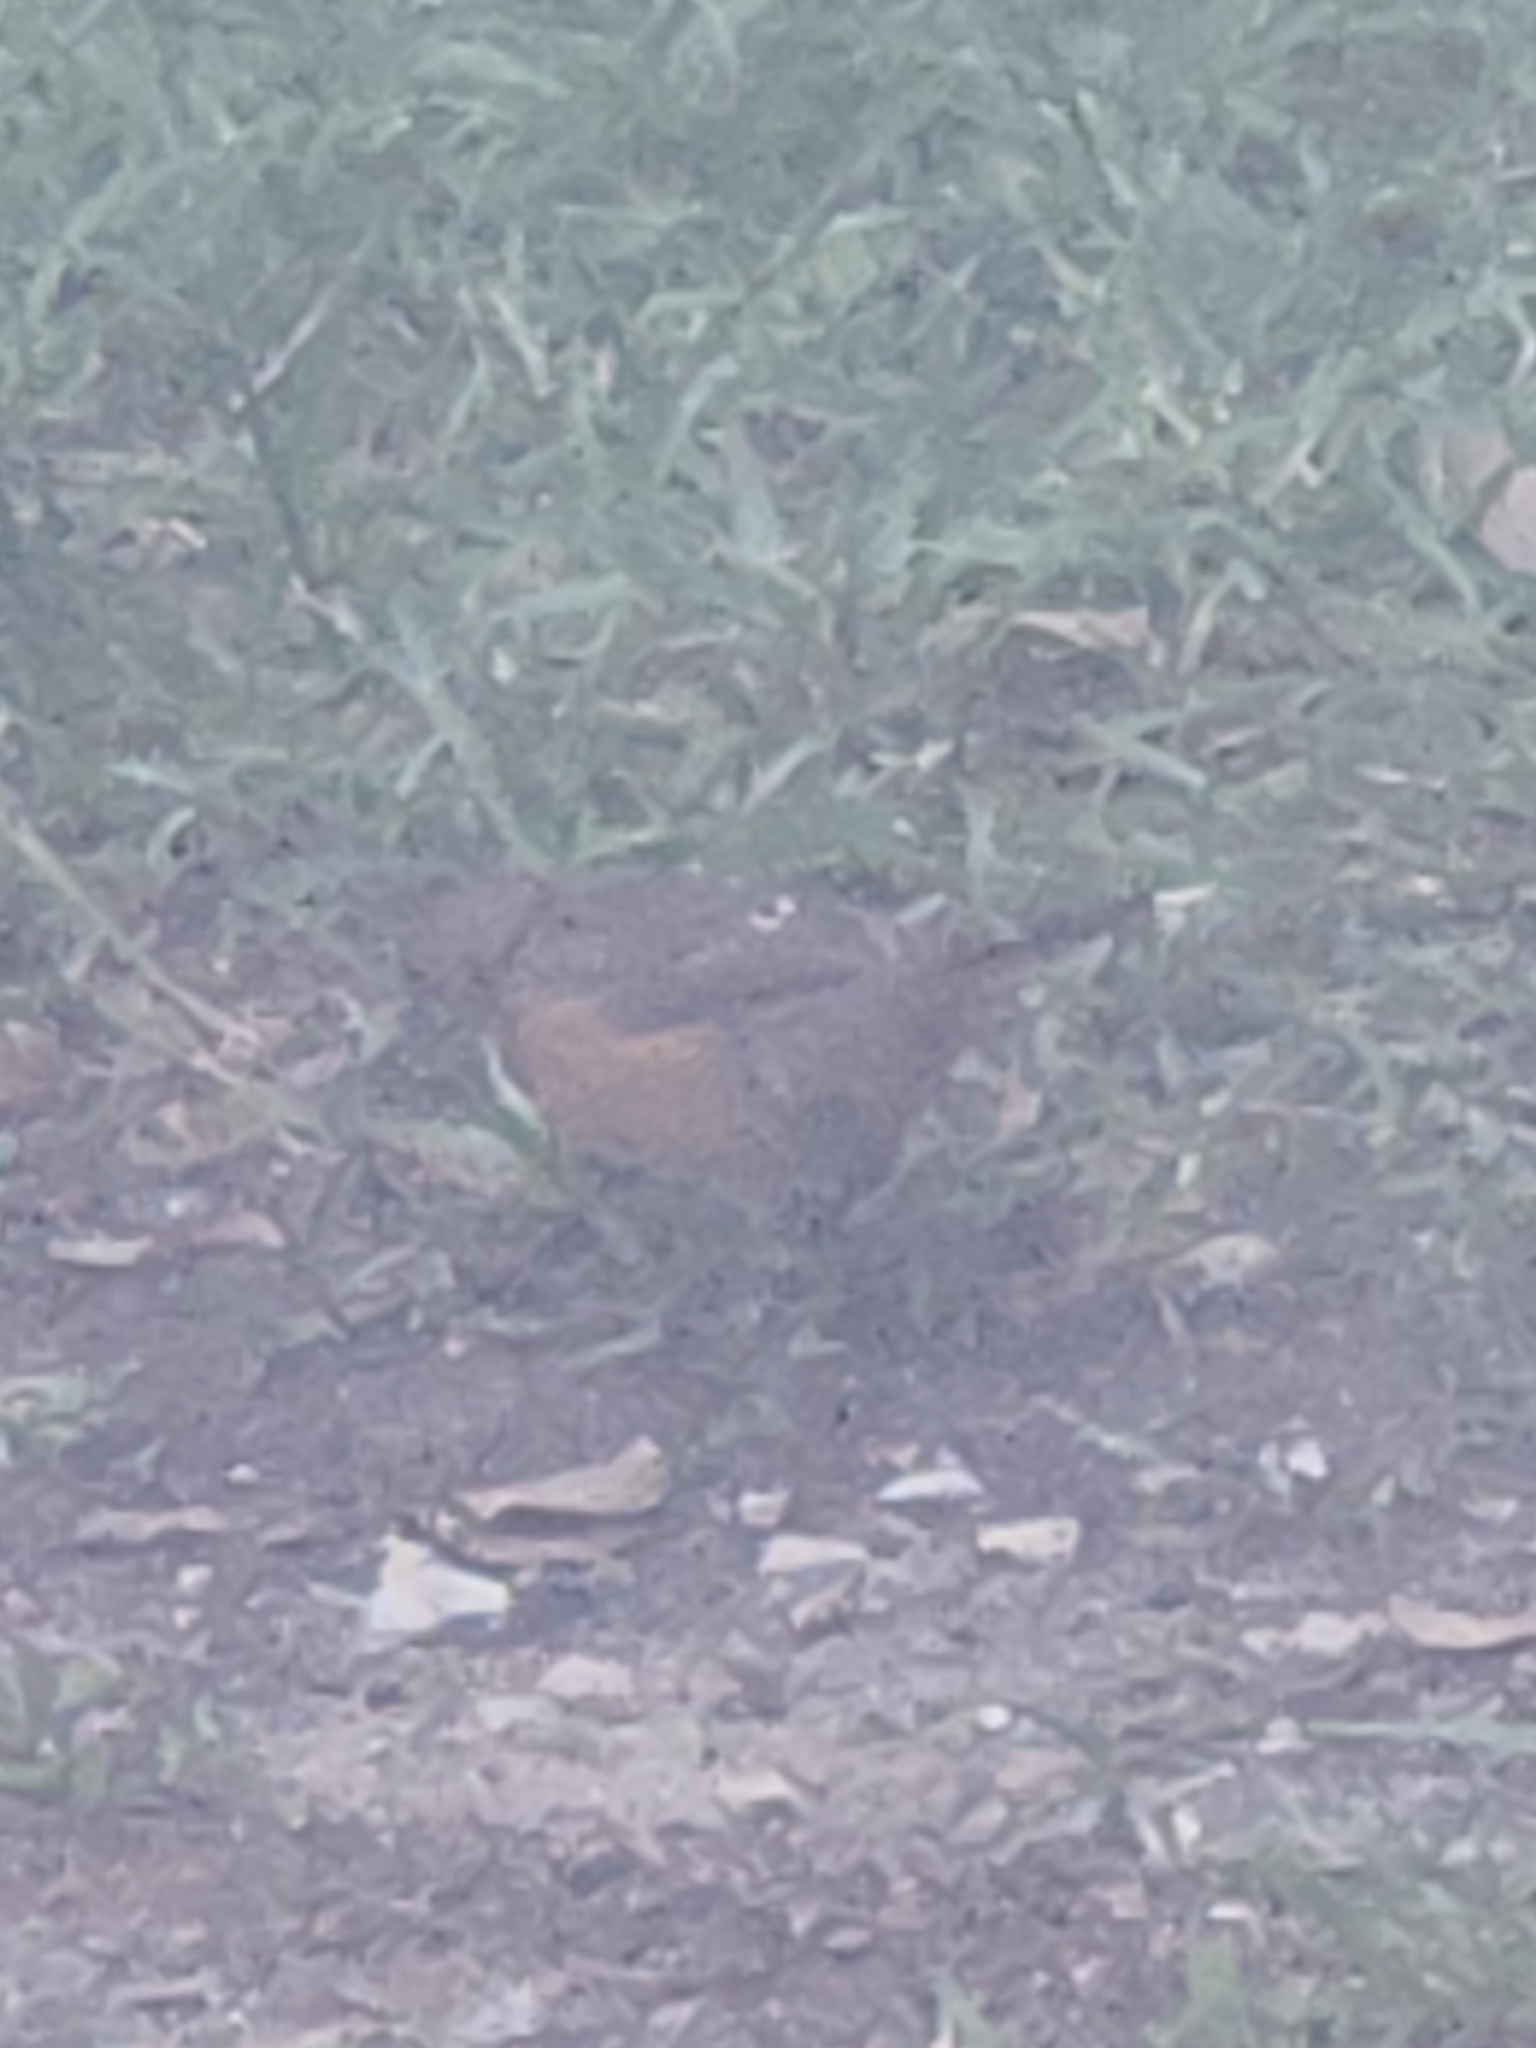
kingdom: Animalia
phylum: Chordata
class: Aves
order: Passeriformes
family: Passerellidae
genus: Pipilo
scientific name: Pipilo erythrophthalmus
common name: Eastern towhee
